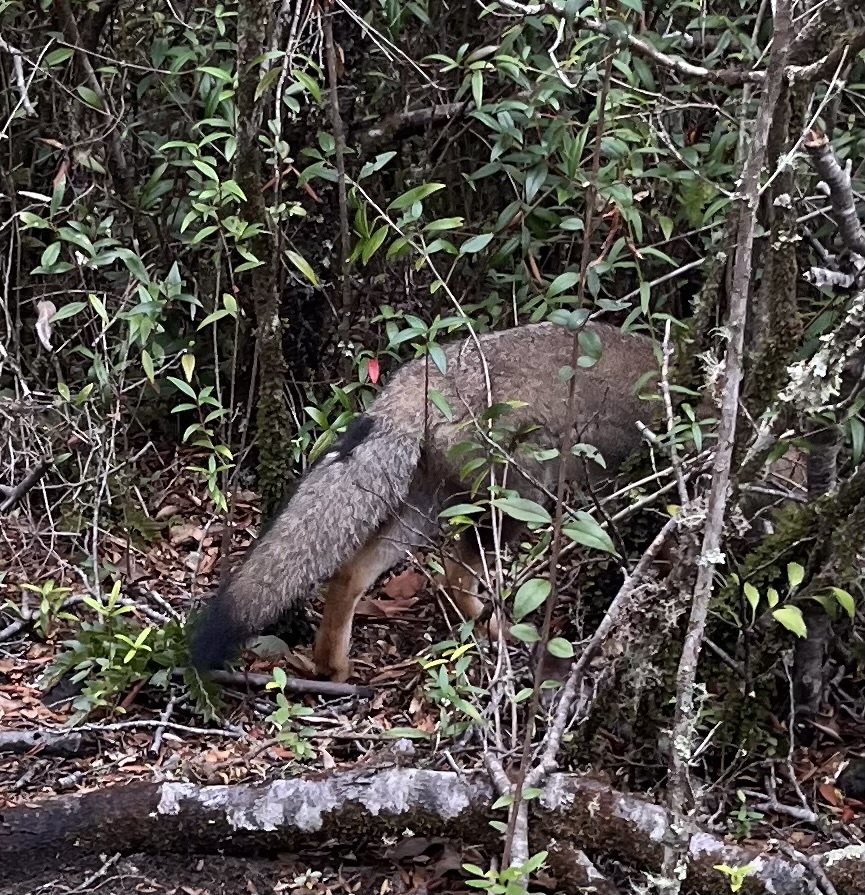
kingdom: Animalia
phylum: Chordata
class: Mammalia
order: Carnivora
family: Canidae
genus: Lycalopex
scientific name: Lycalopex gymnocercus
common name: Pampas fox
